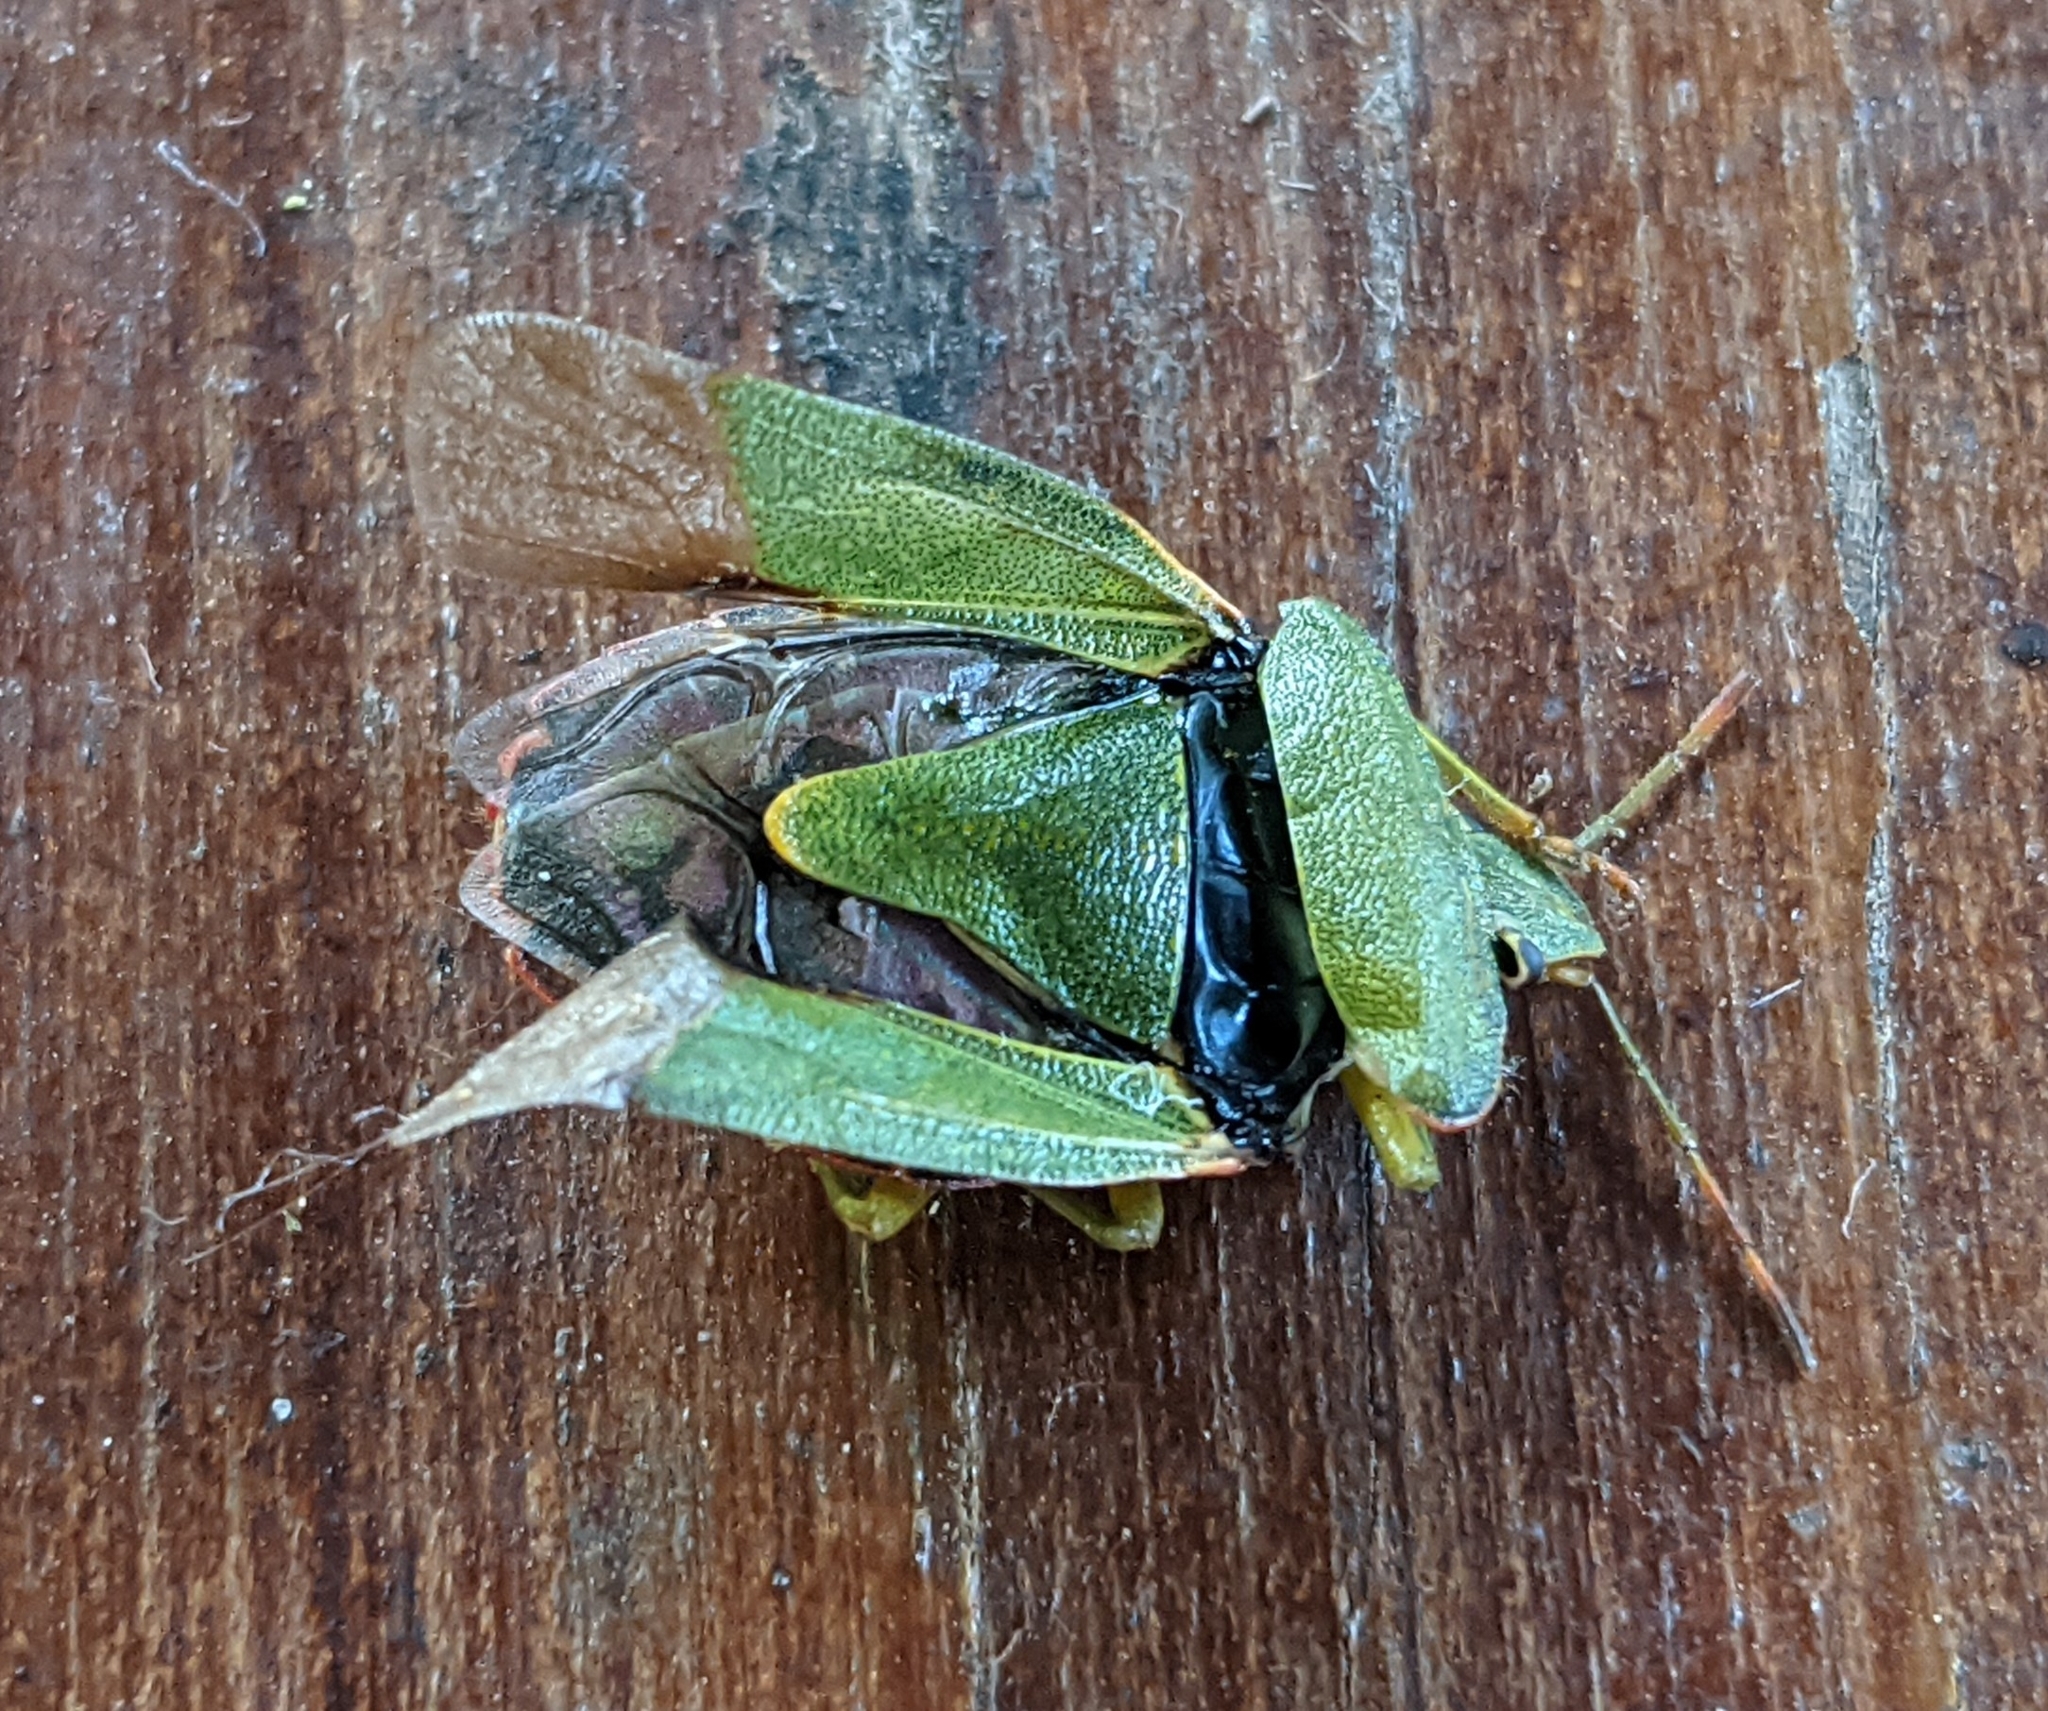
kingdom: Animalia
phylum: Arthropoda
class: Insecta
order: Hemiptera
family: Pentatomidae
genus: Palomena
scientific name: Palomena prasina
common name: Green shieldbug
